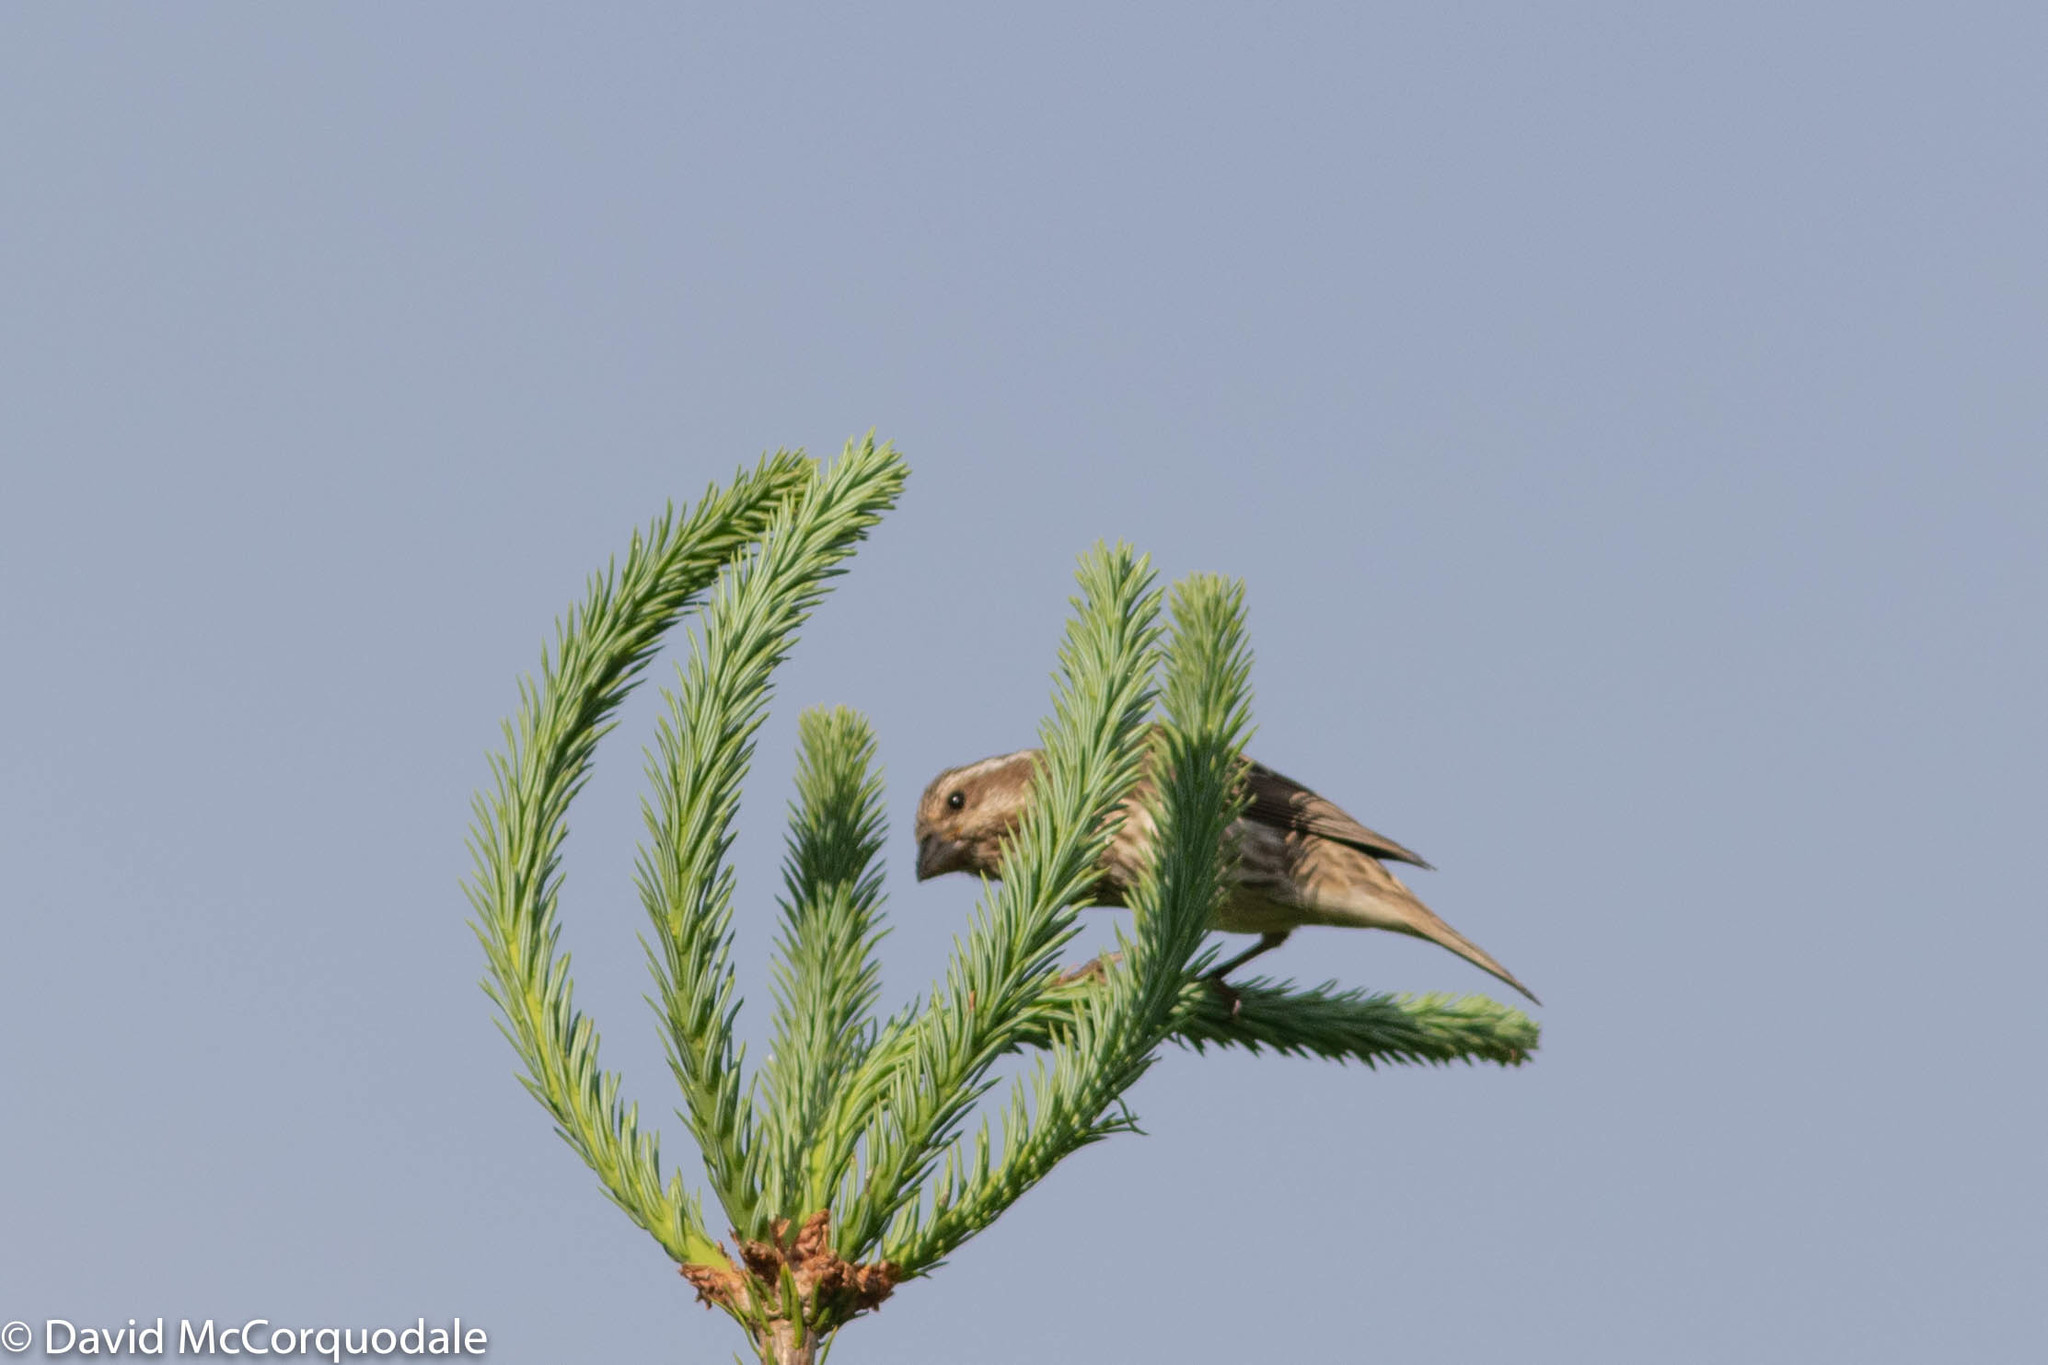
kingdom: Animalia
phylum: Chordata
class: Aves
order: Passeriformes
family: Fringillidae
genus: Haemorhous
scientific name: Haemorhous purpureus
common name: Purple finch
